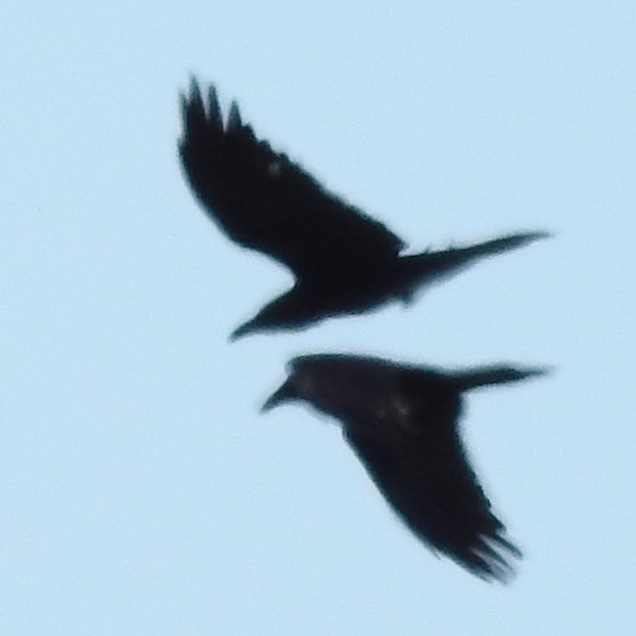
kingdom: Animalia
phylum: Chordata
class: Aves
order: Passeriformes
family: Corvidae
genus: Corvus
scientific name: Corvus corax
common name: Common raven
